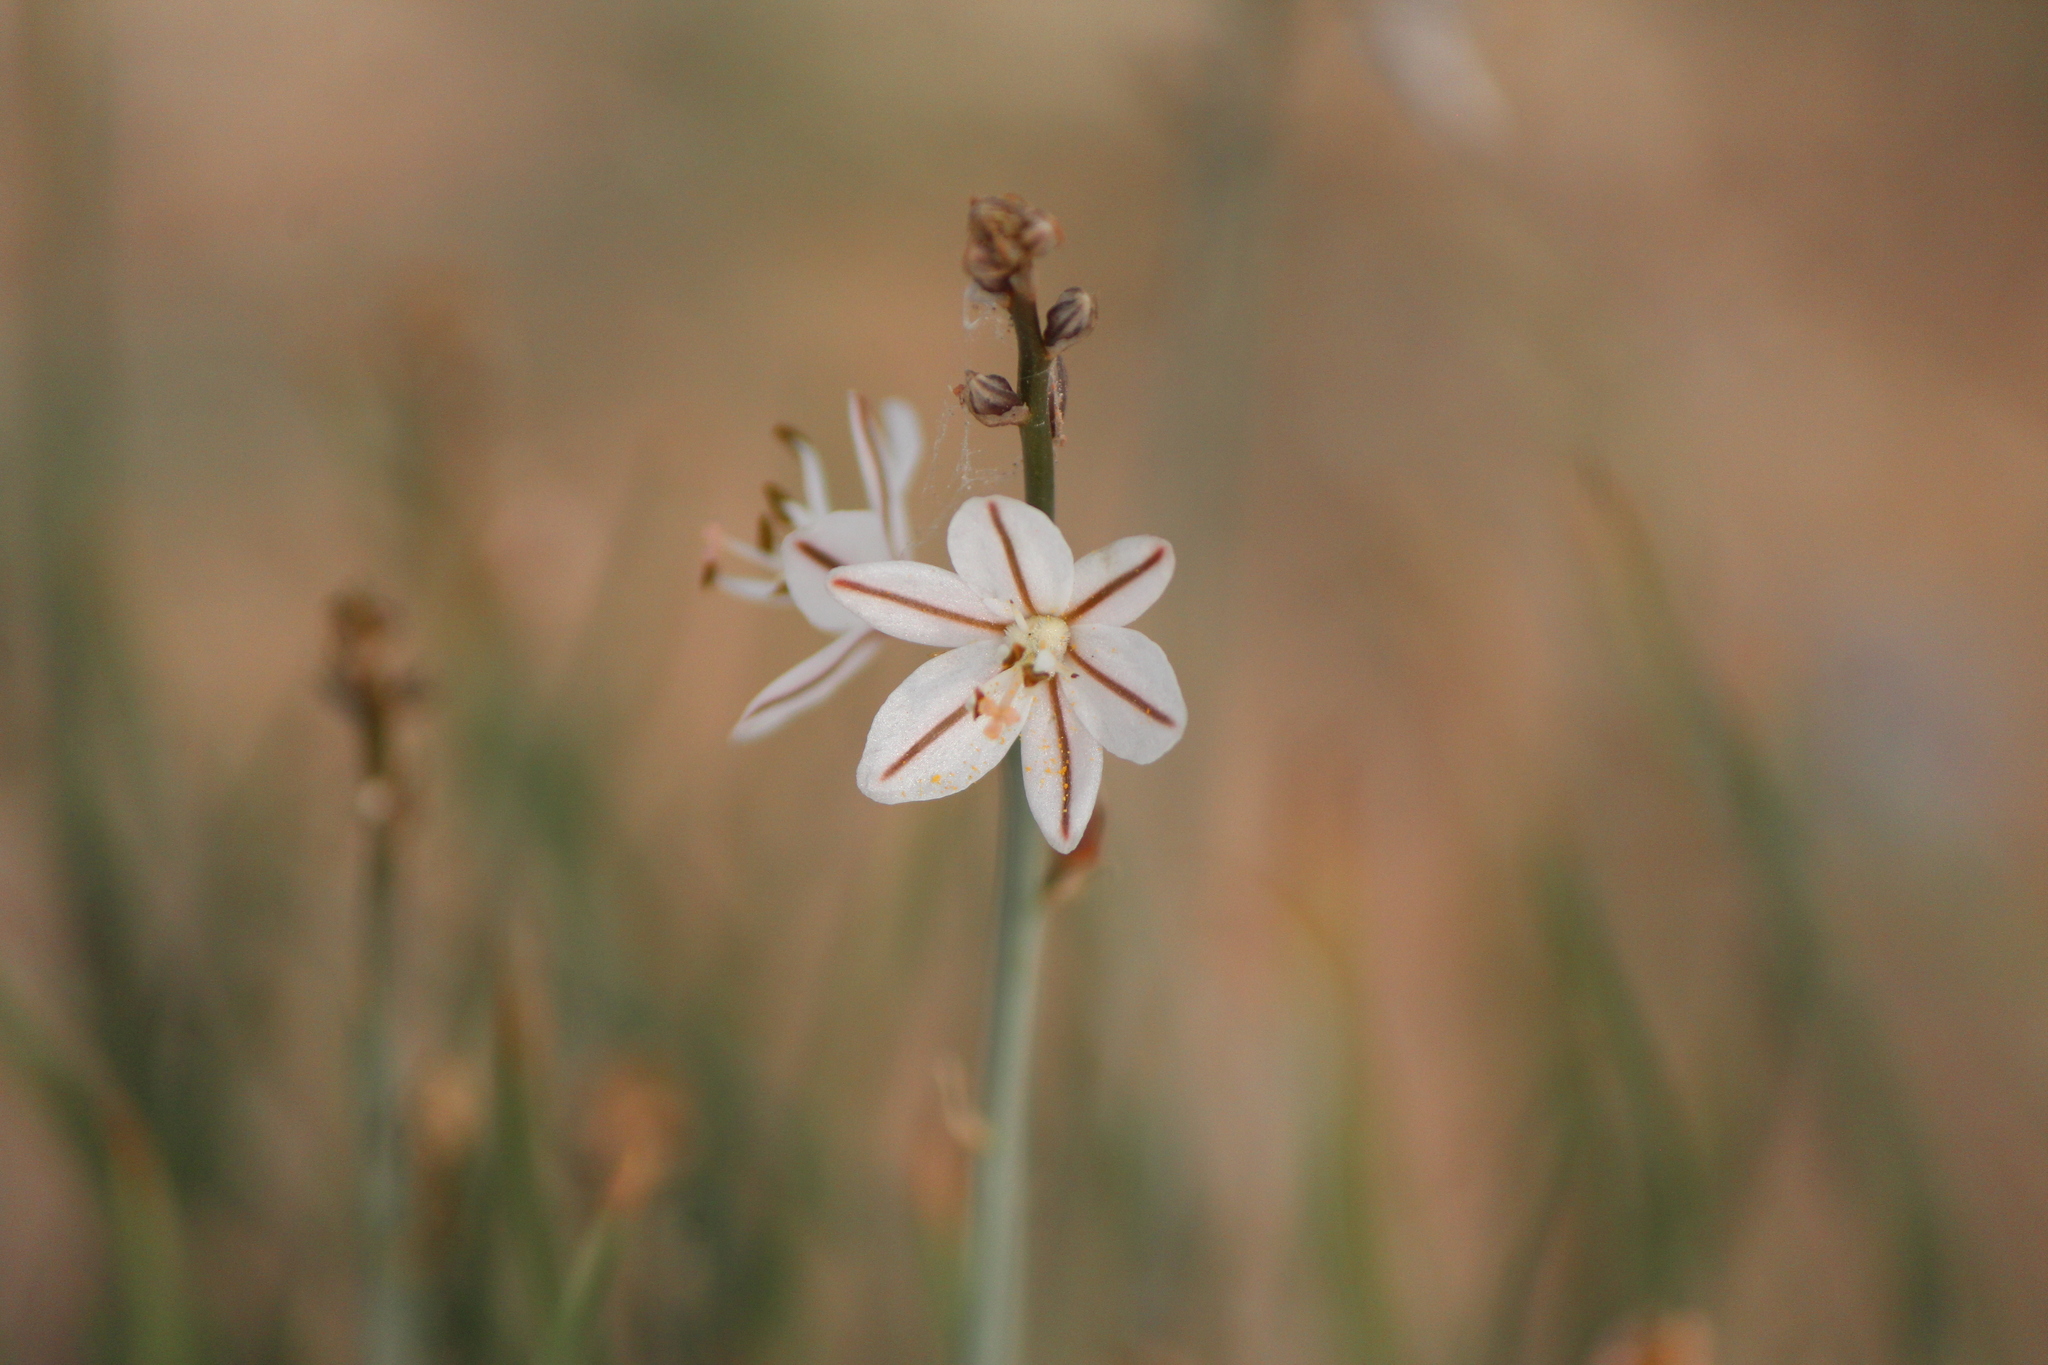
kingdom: Plantae
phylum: Tracheophyta
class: Liliopsida
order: Asparagales
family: Asphodelaceae
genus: Asphodelus
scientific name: Asphodelus fistulosus
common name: Onionweed
